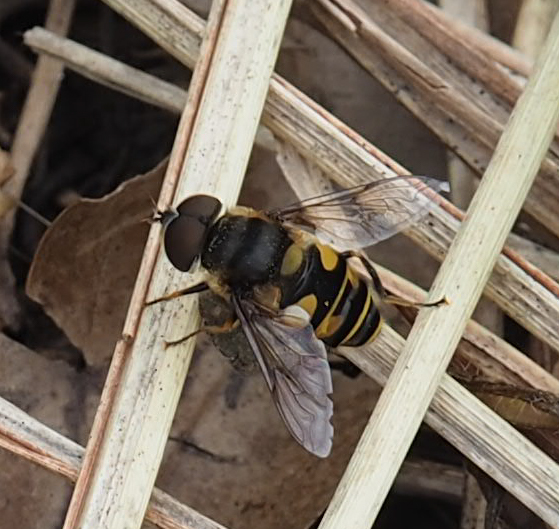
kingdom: Animalia
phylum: Arthropoda
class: Insecta
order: Diptera
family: Syrphidae
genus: Eristalis
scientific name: Eristalis transversa
